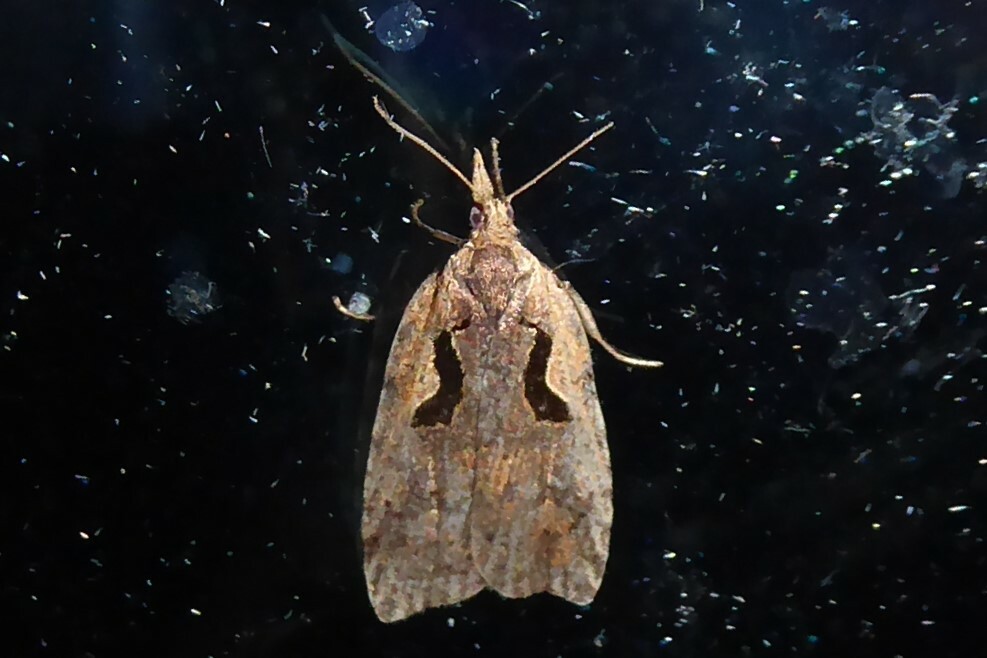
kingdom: Animalia
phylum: Arthropoda
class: Insecta
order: Lepidoptera
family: Tortricidae
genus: Cnephasia
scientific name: Cnephasia jactatana
